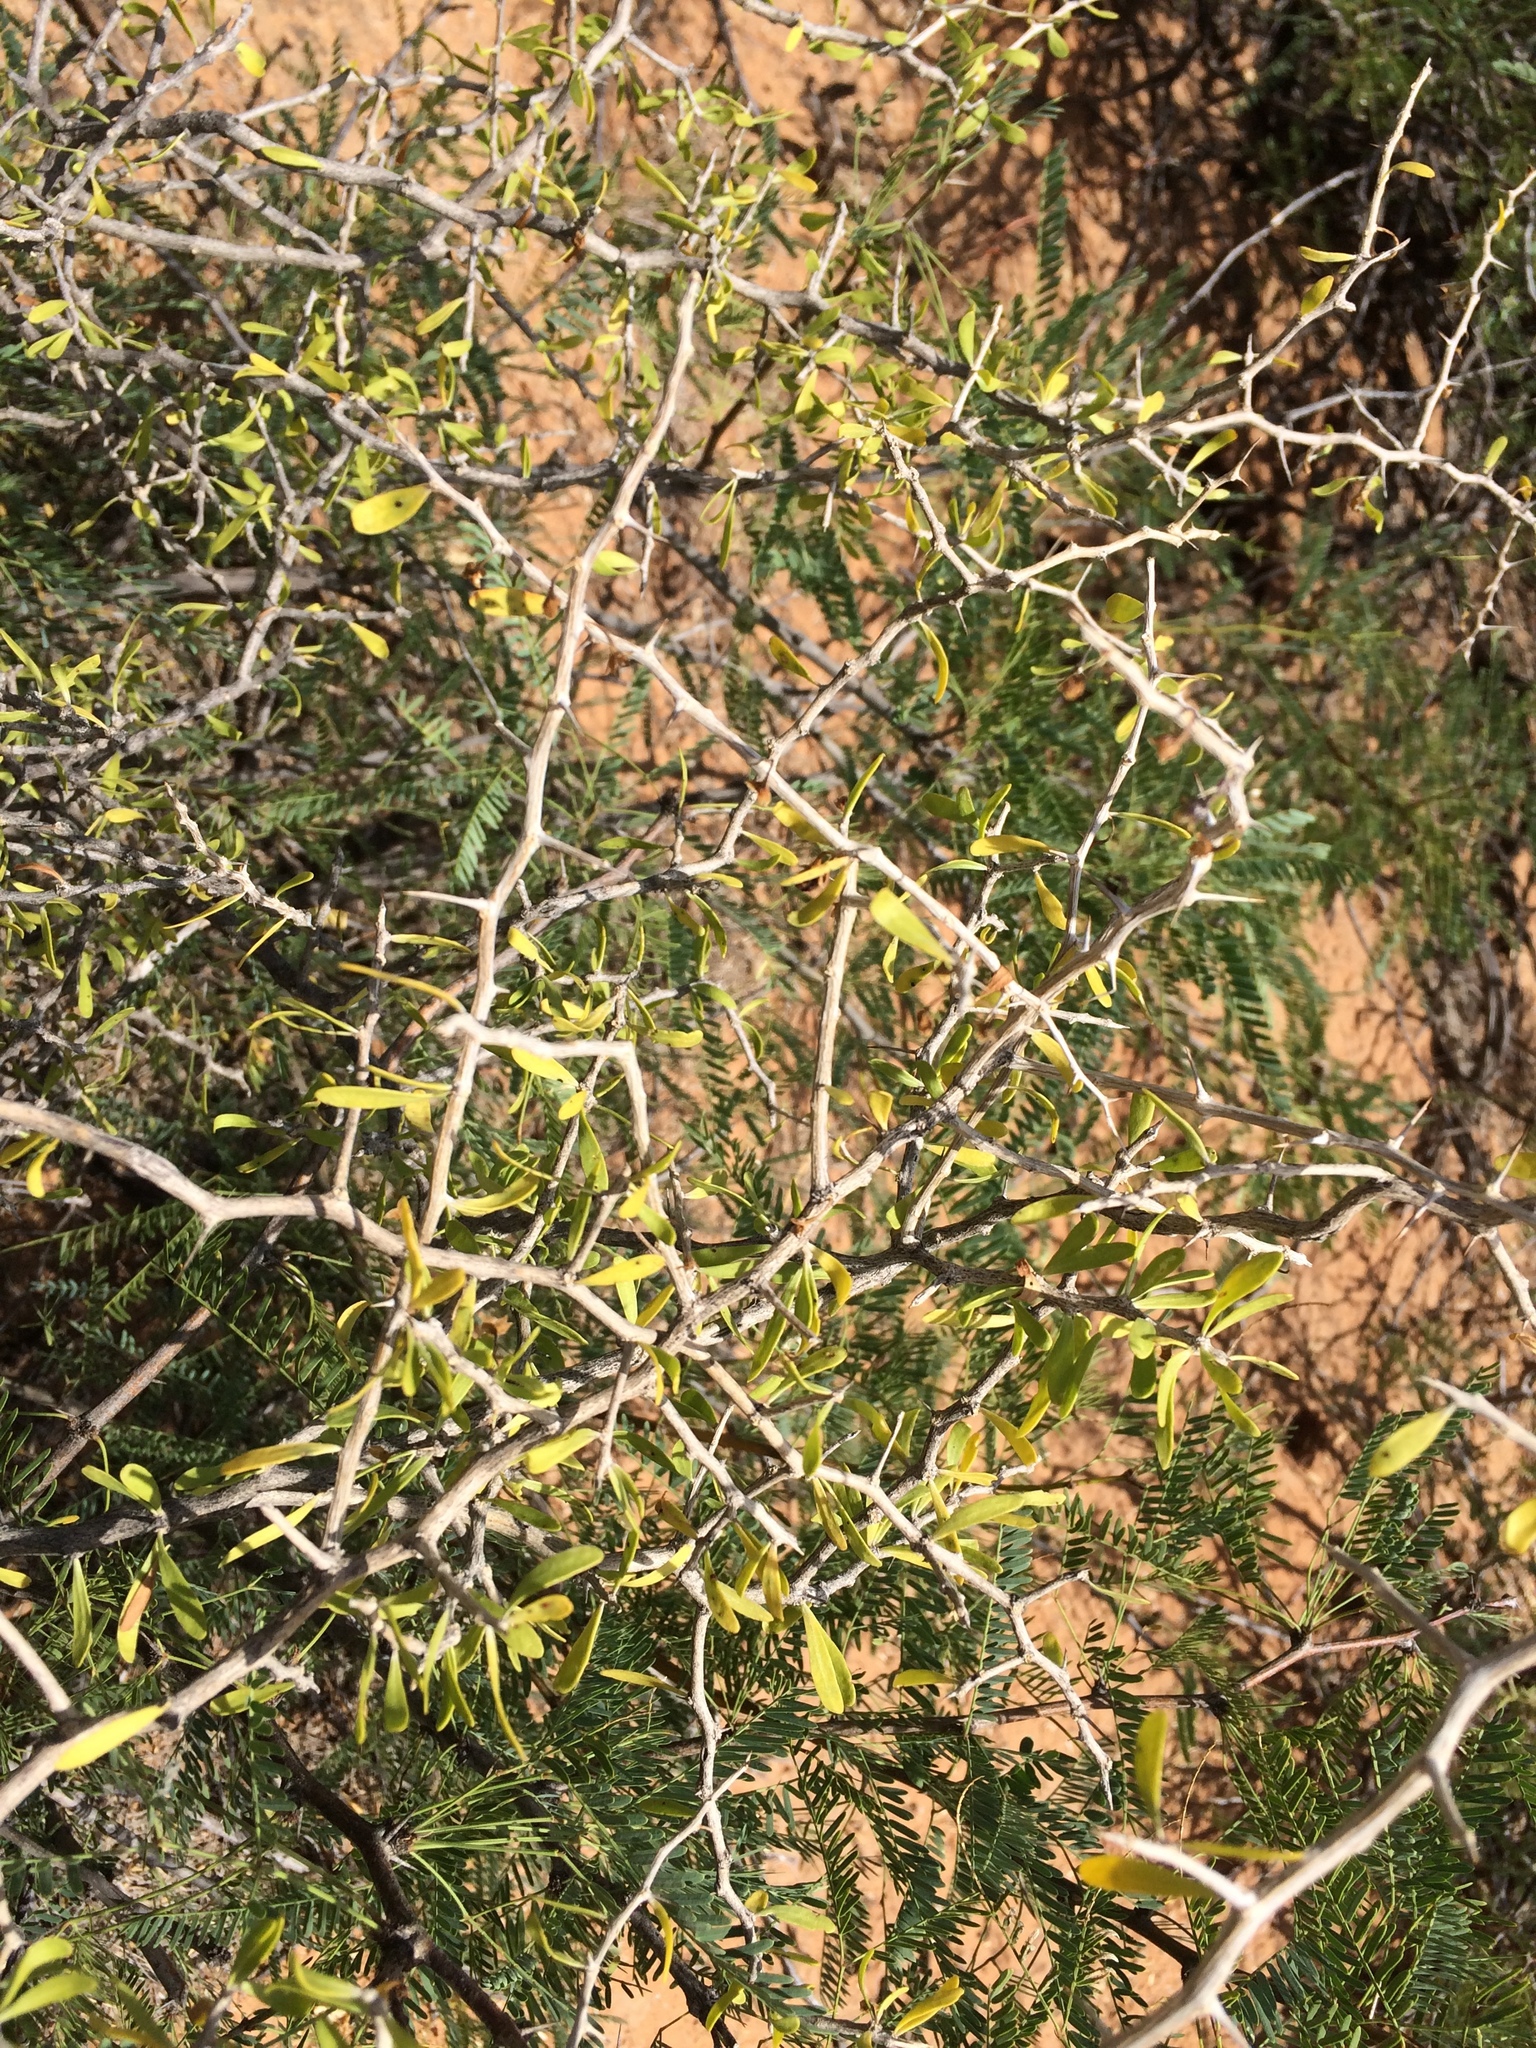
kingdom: Plantae
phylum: Tracheophyta
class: Magnoliopsida
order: Solanales
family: Solanaceae
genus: Lycium
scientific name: Lycium berlandieri
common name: Berlandier wolfberry
